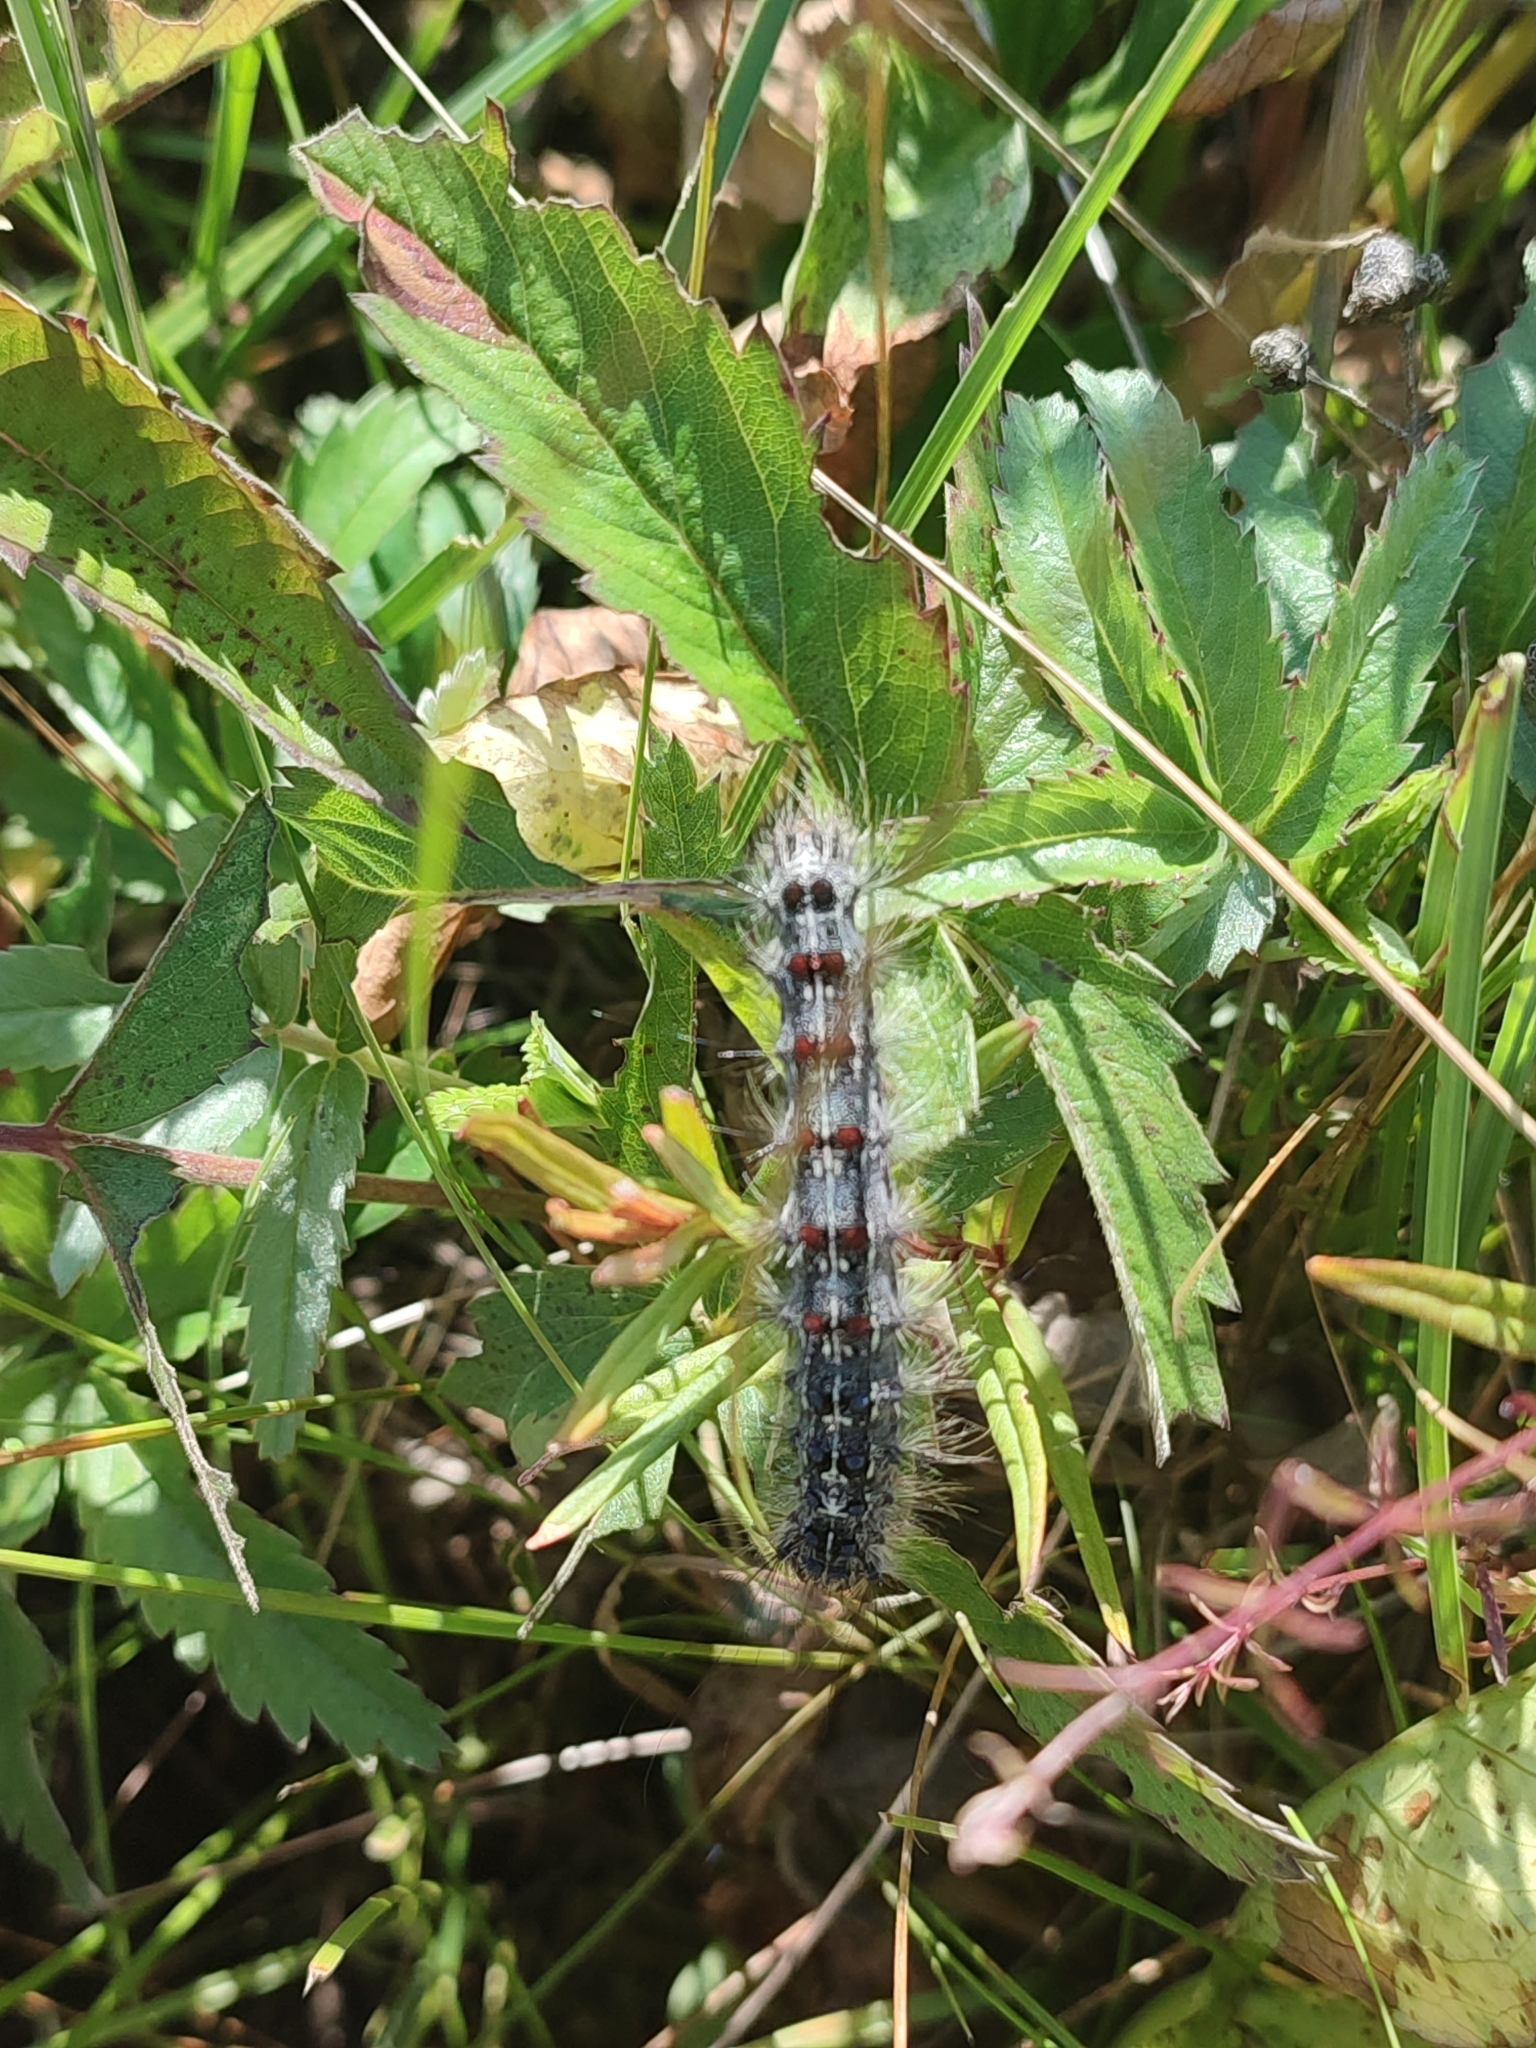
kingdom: Animalia
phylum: Arthropoda
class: Insecta
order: Lepidoptera
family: Erebidae
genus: Lymantria
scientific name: Lymantria dispar
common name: Gypsy moth
